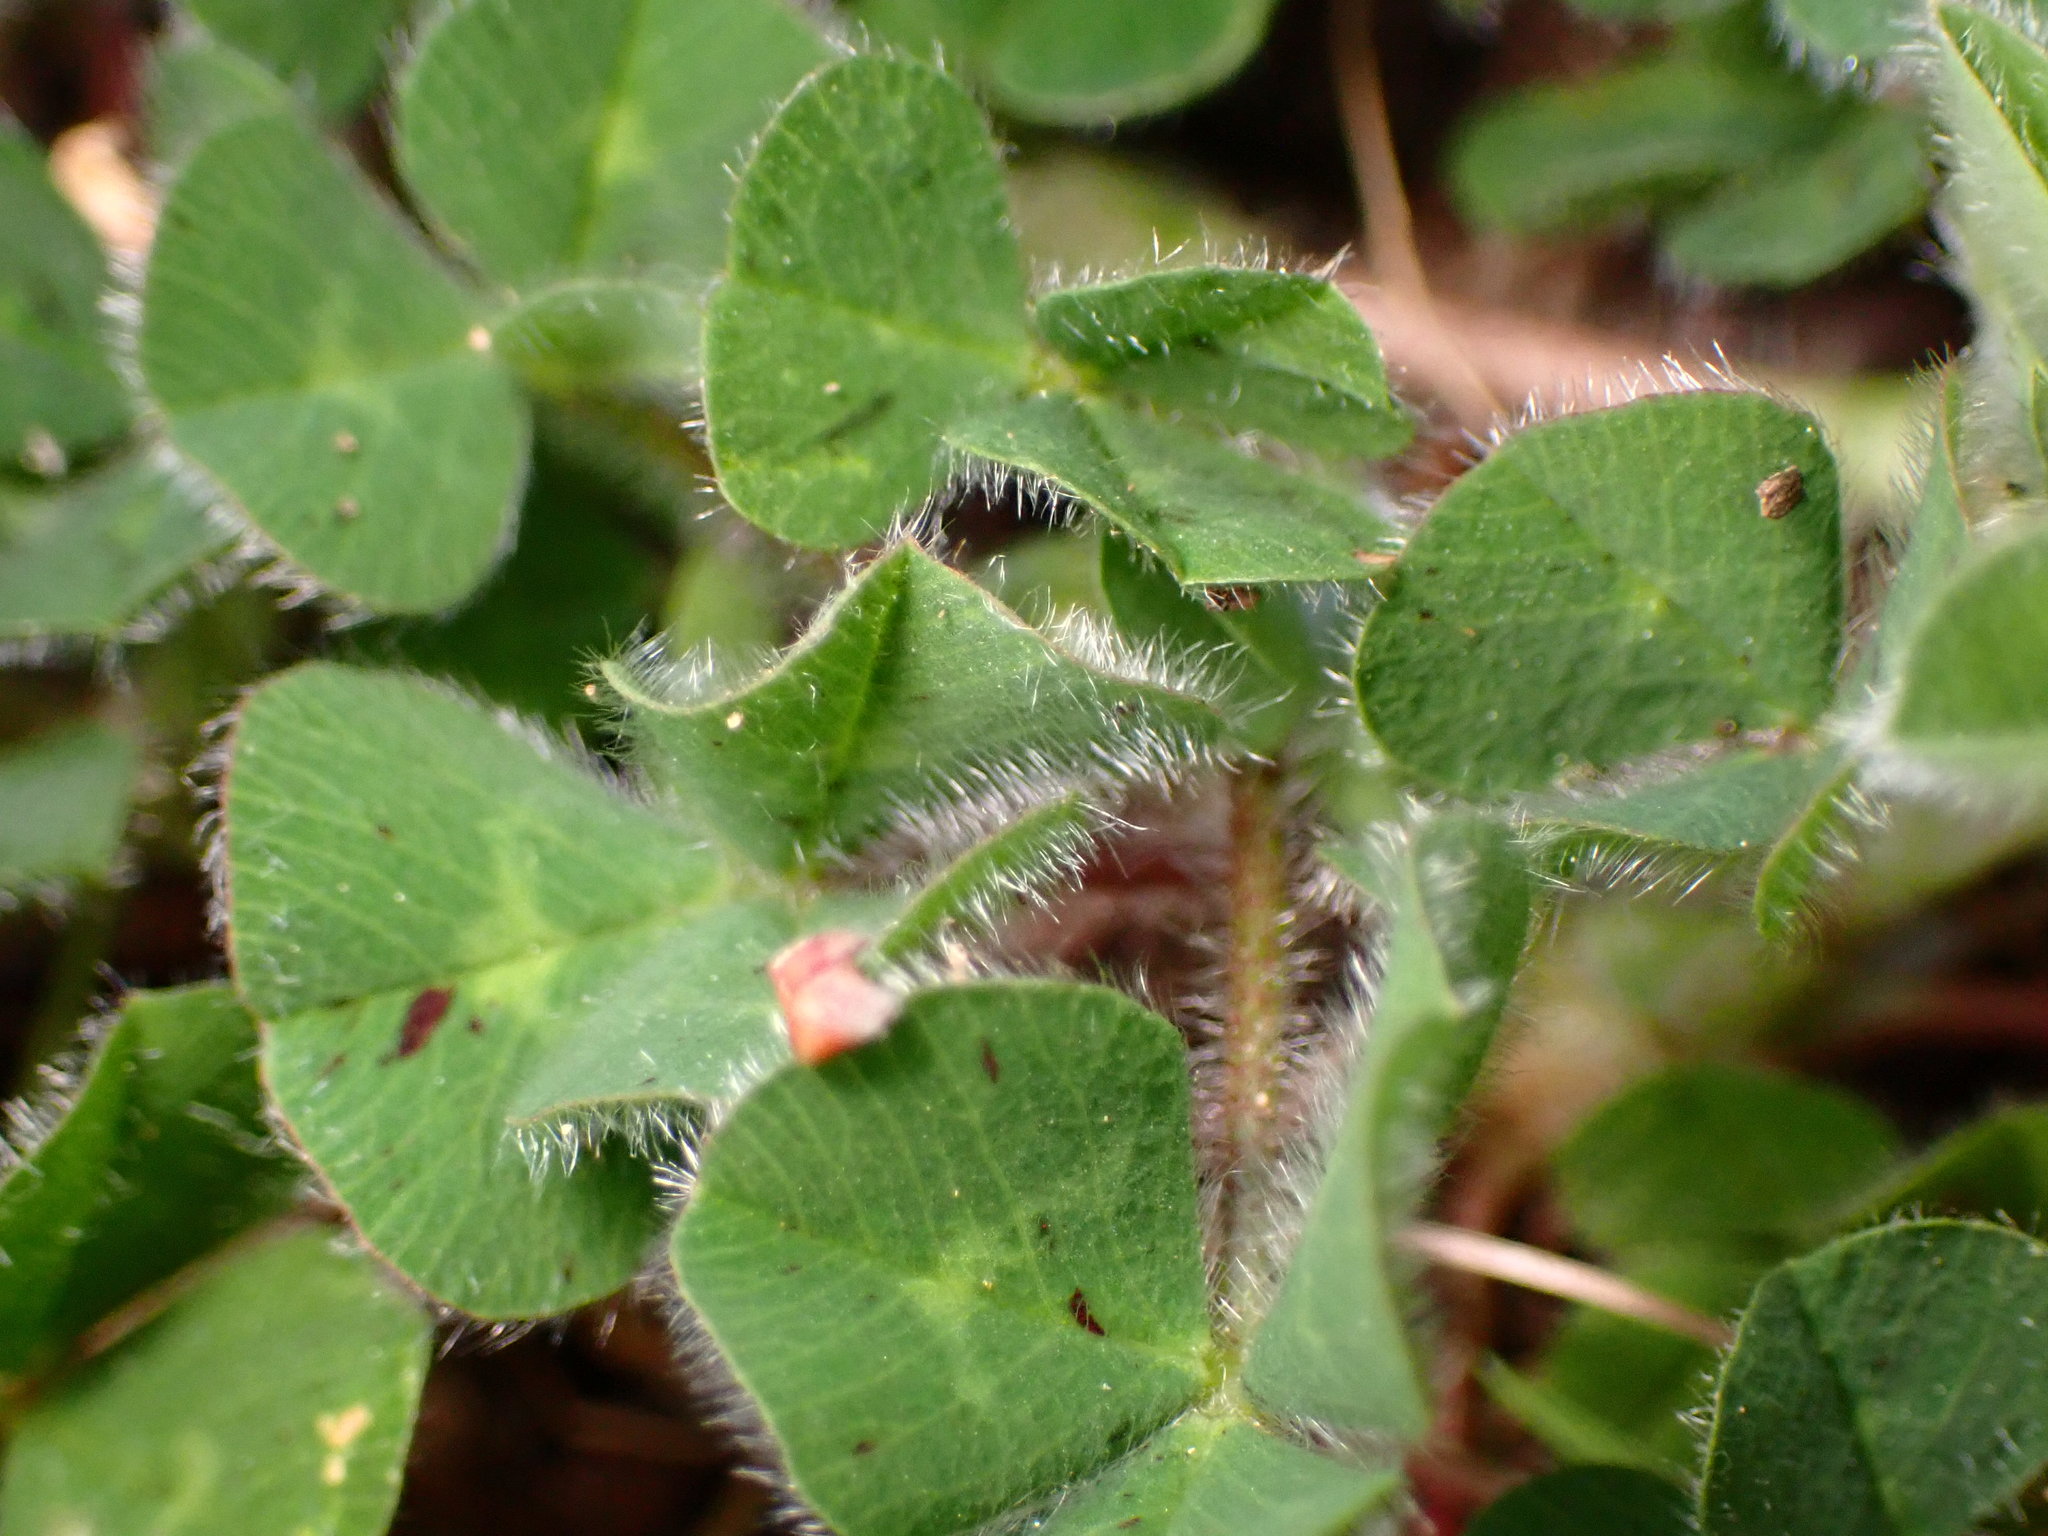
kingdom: Plantae
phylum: Tracheophyta
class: Magnoliopsida
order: Fabales
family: Fabaceae
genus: Trifolium
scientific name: Trifolium subterraneum
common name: Subterranean clover
